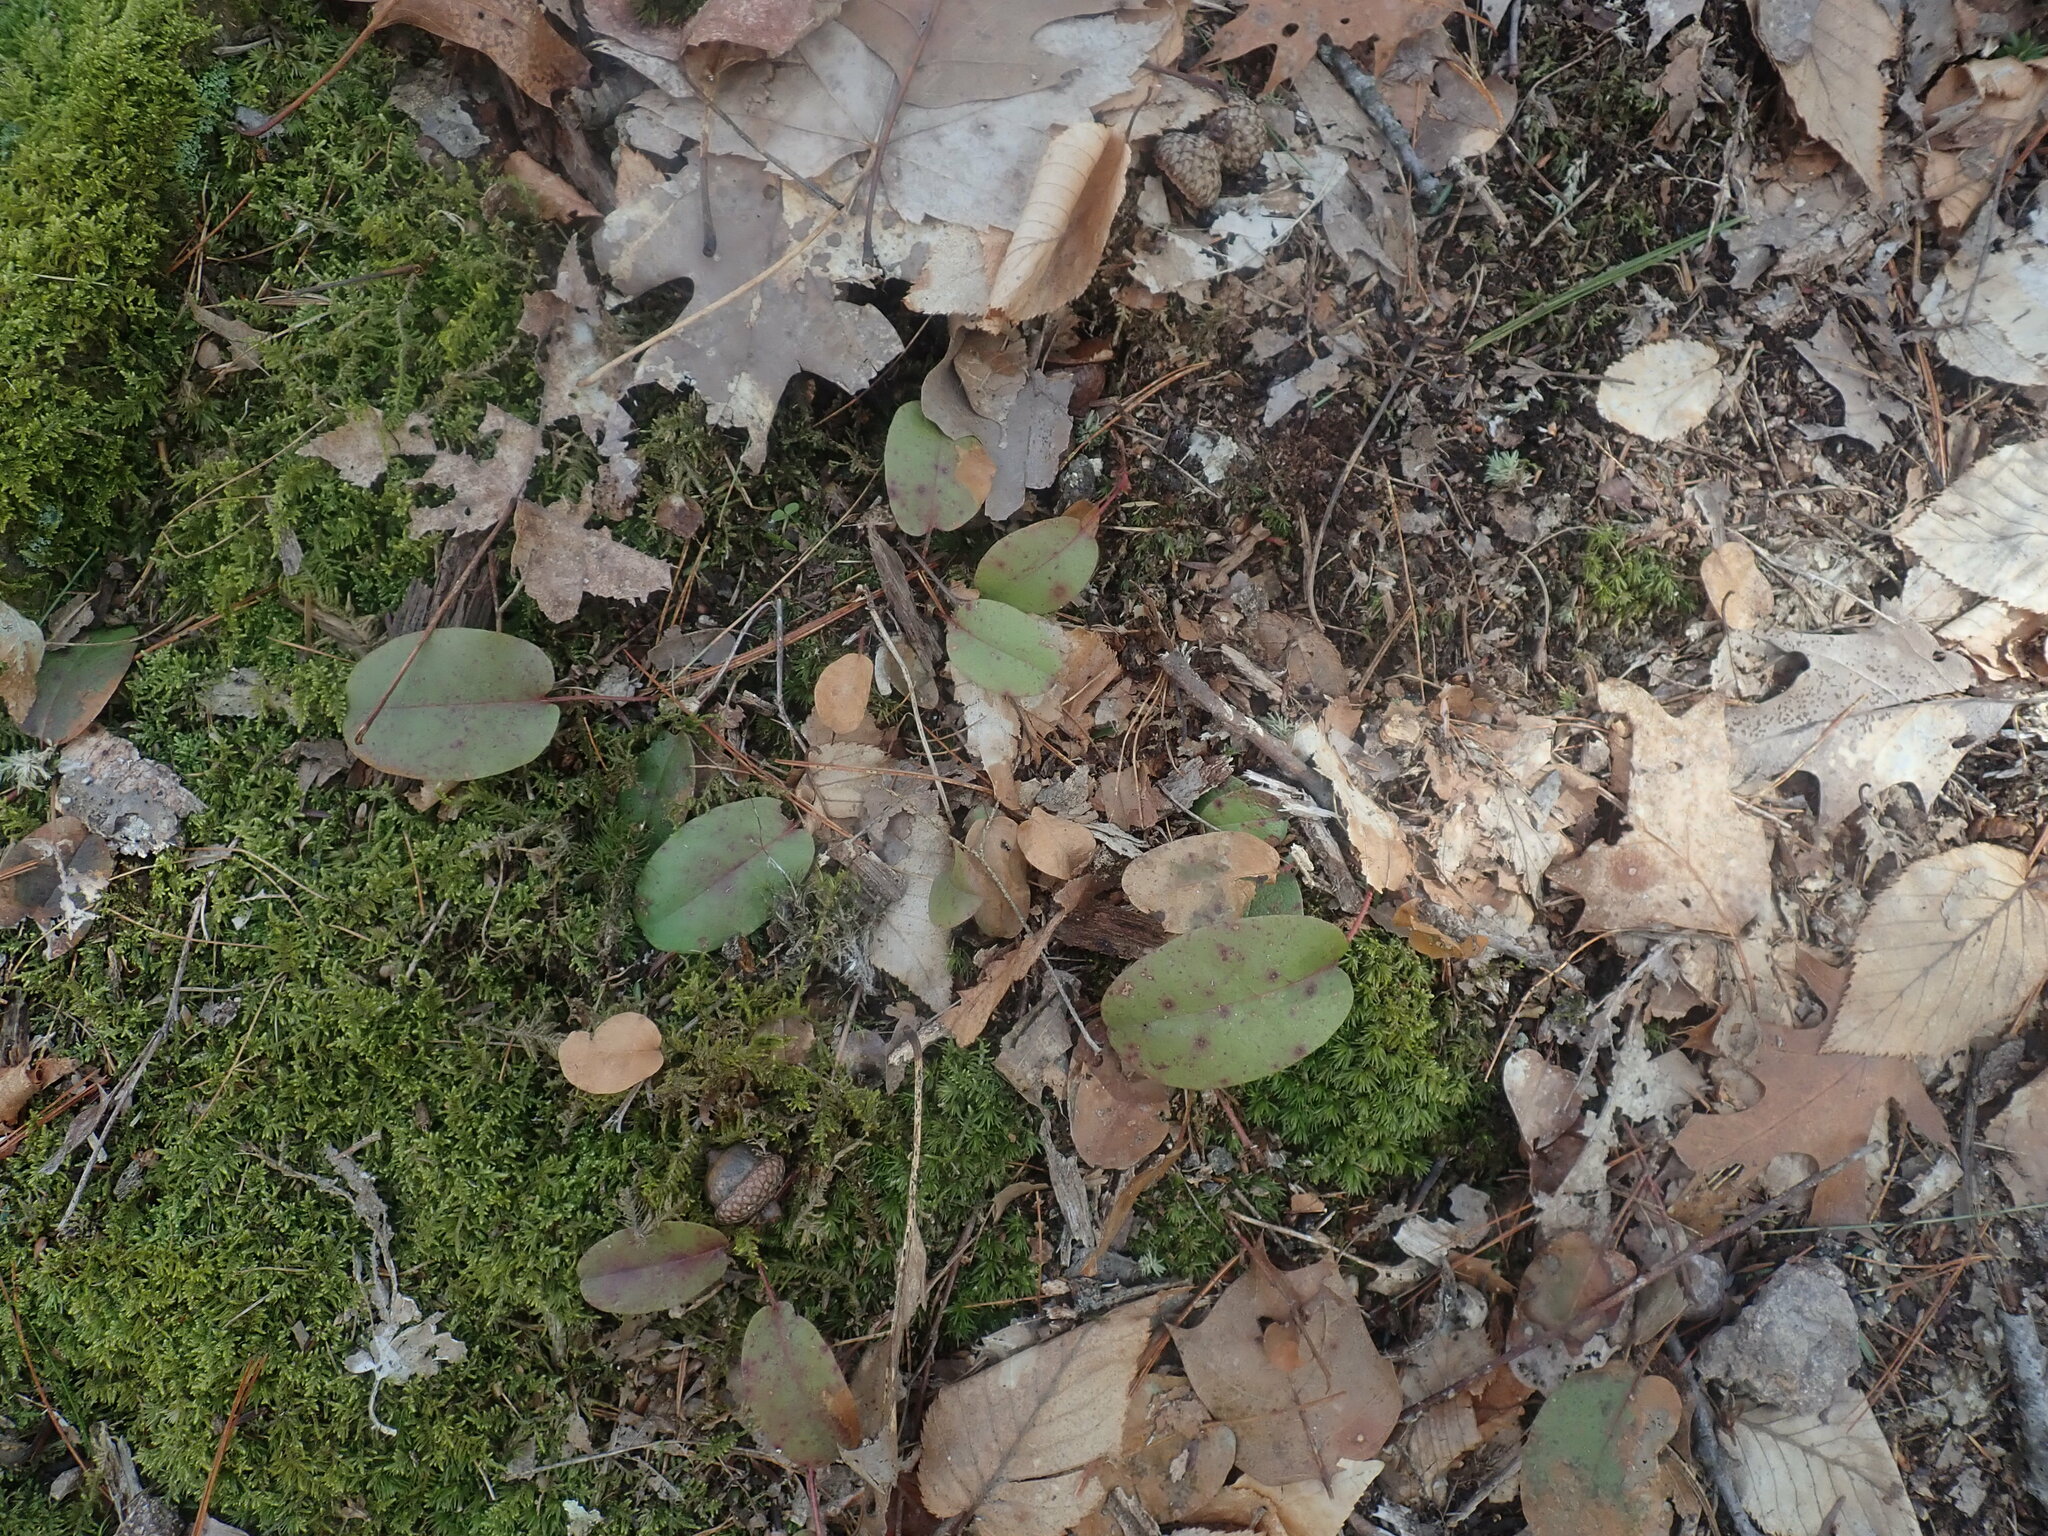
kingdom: Plantae
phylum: Tracheophyta
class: Magnoliopsida
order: Ericales
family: Ericaceae
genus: Epigaea
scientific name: Epigaea repens
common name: Gravelroot
